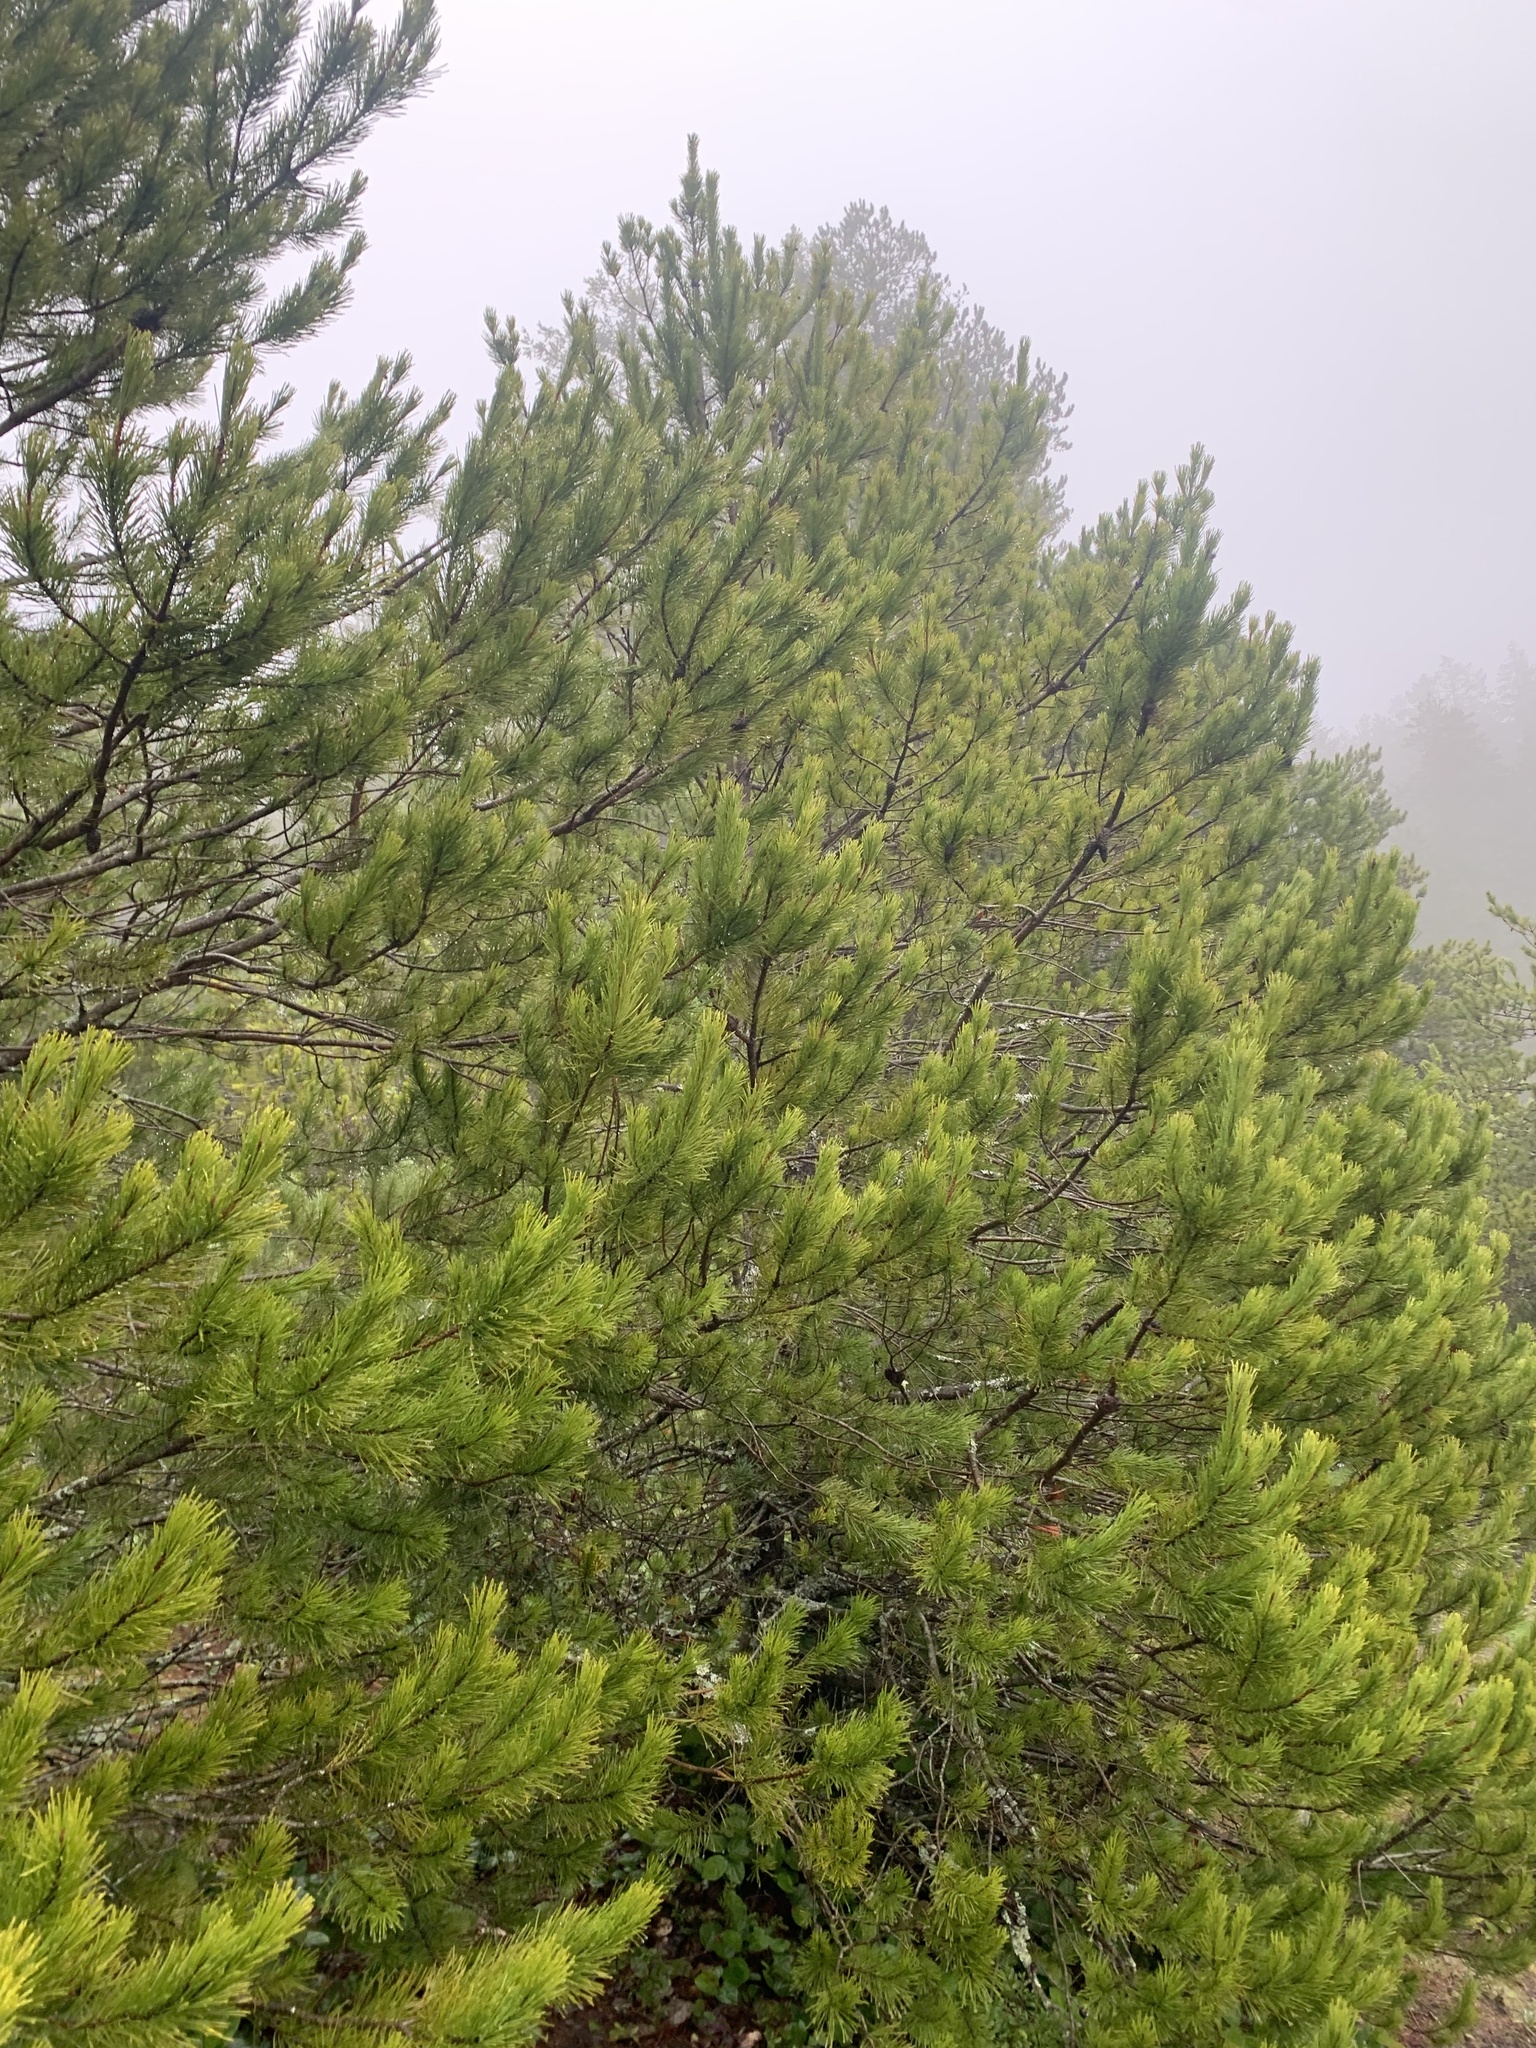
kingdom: Plantae
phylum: Tracheophyta
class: Pinopsida
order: Pinales
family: Pinaceae
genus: Pinus
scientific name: Pinus contorta
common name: Lodgepole pine
